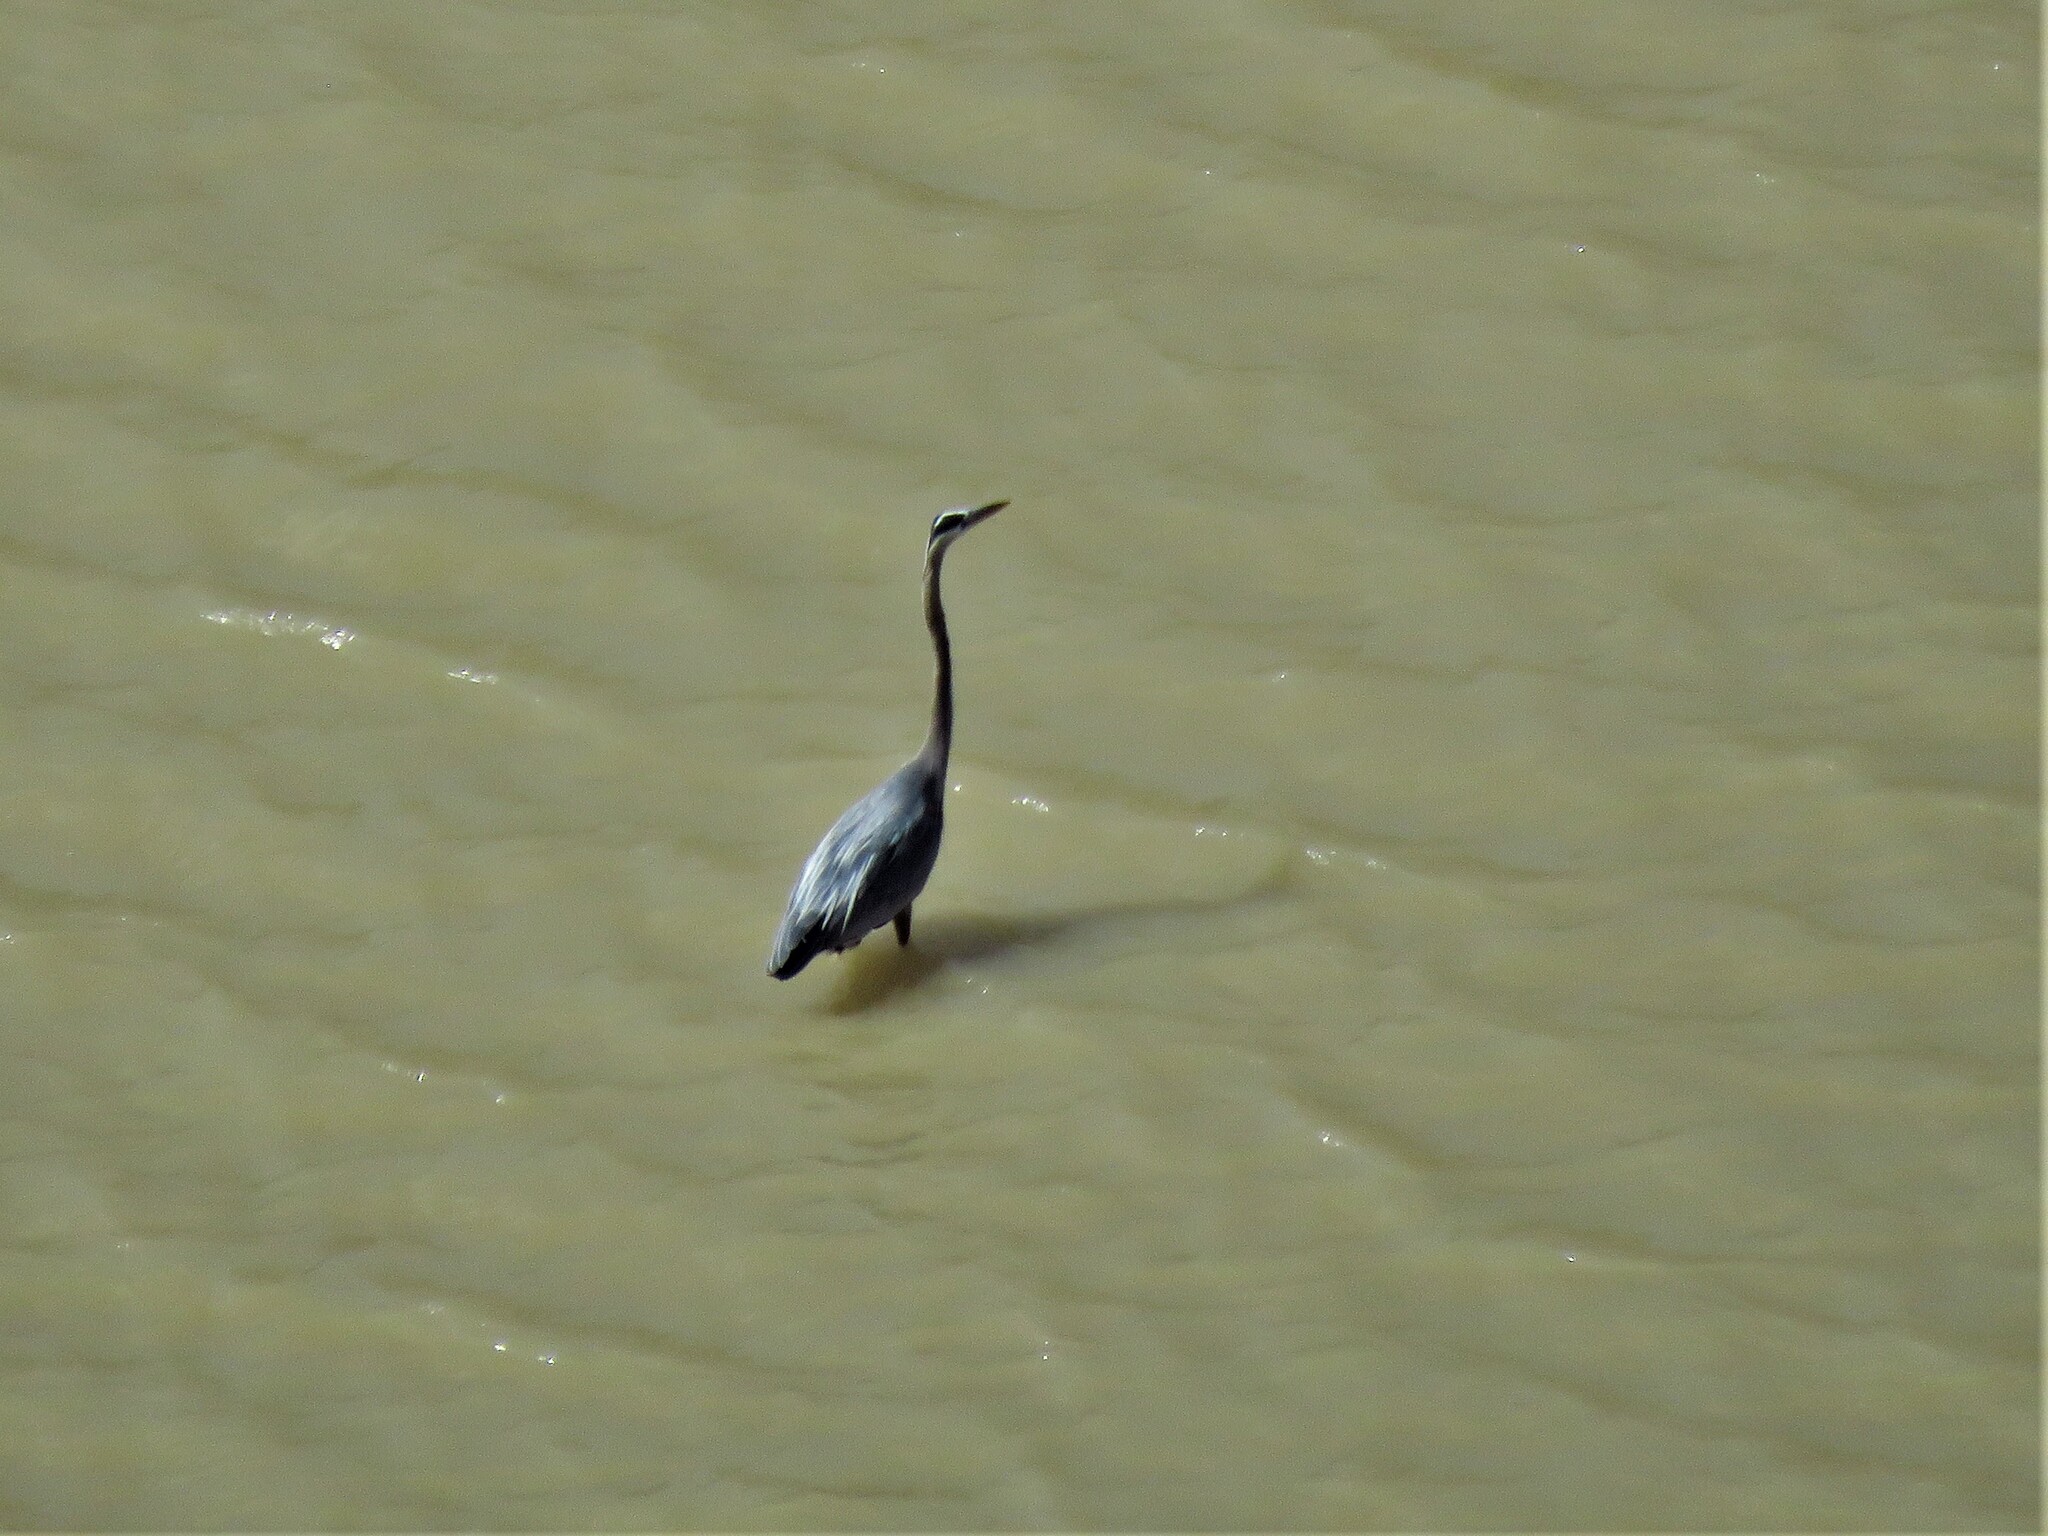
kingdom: Animalia
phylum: Chordata
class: Aves
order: Pelecaniformes
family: Ardeidae
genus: Ardea
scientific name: Ardea herodias
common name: Great blue heron
